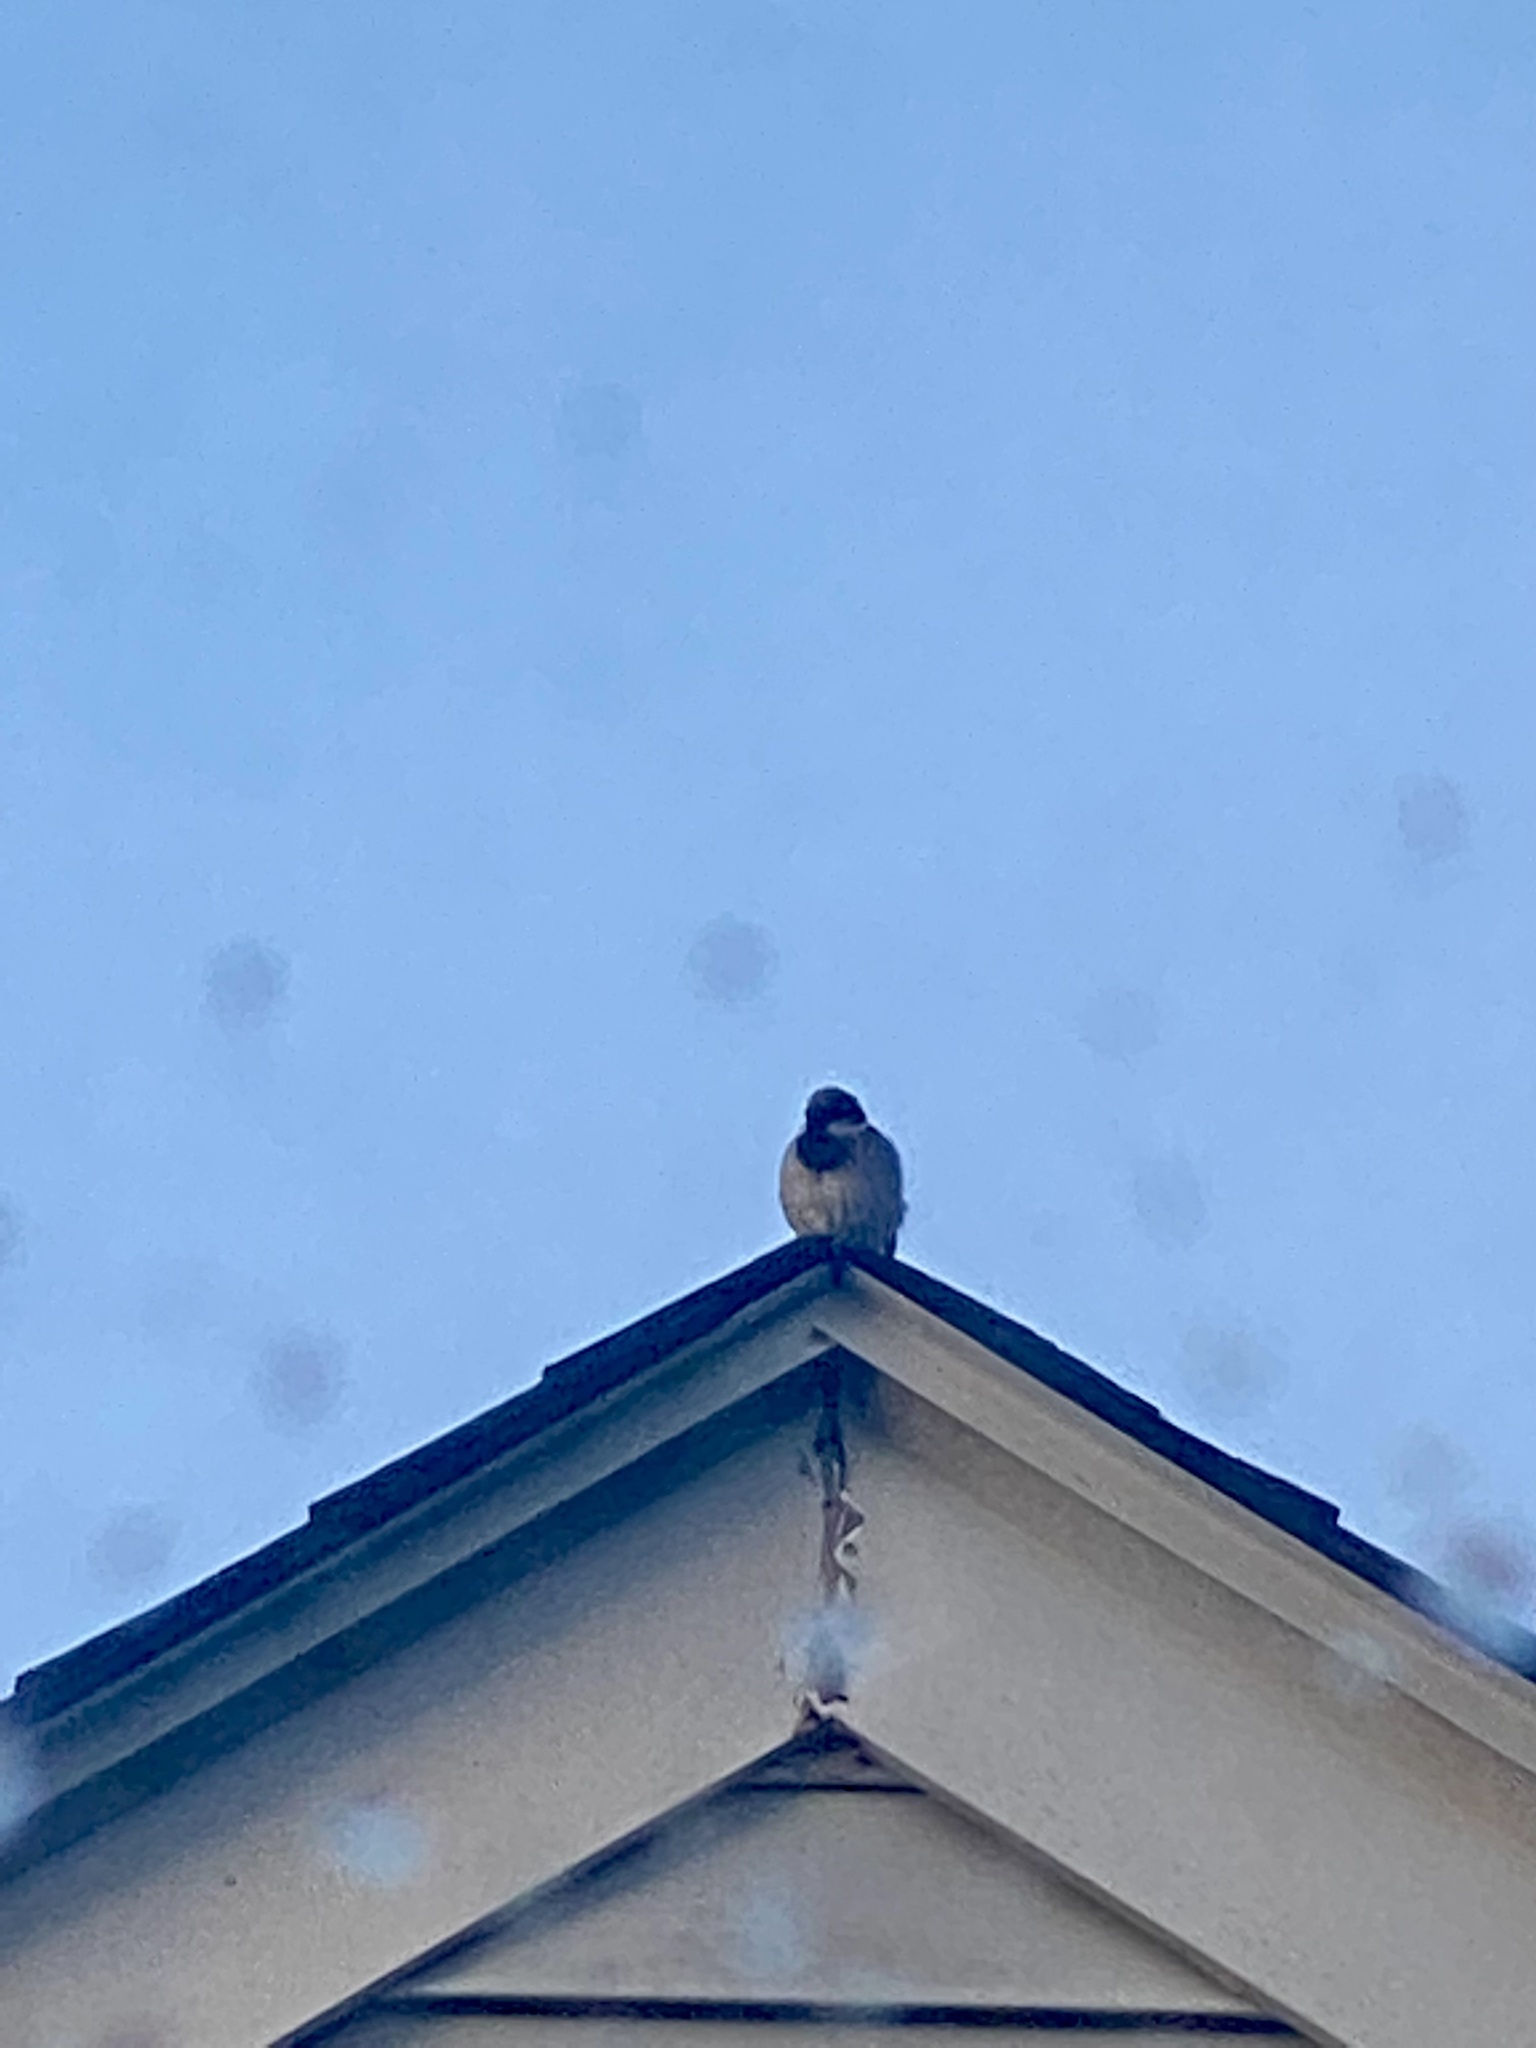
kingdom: Animalia
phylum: Chordata
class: Aves
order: Passeriformes
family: Passeridae
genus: Passer
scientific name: Passer domesticus
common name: House sparrow
